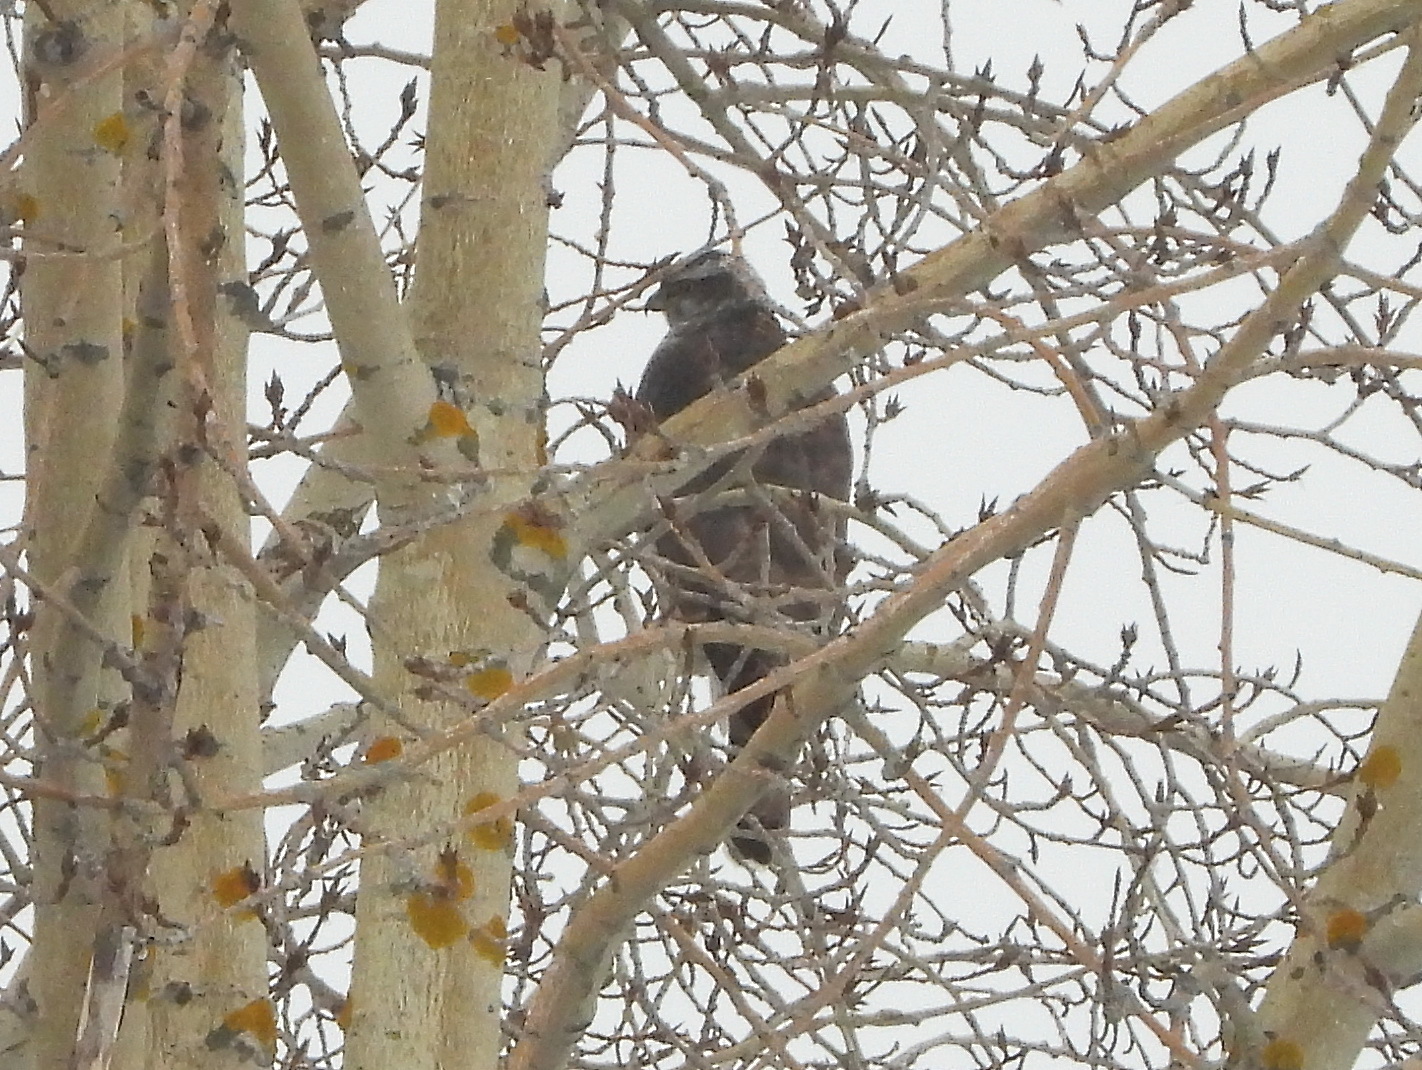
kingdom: Animalia
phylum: Chordata
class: Aves
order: Accipitriformes
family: Accipitridae
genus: Accipiter
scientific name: Accipiter gentilis
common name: Northern goshawk
